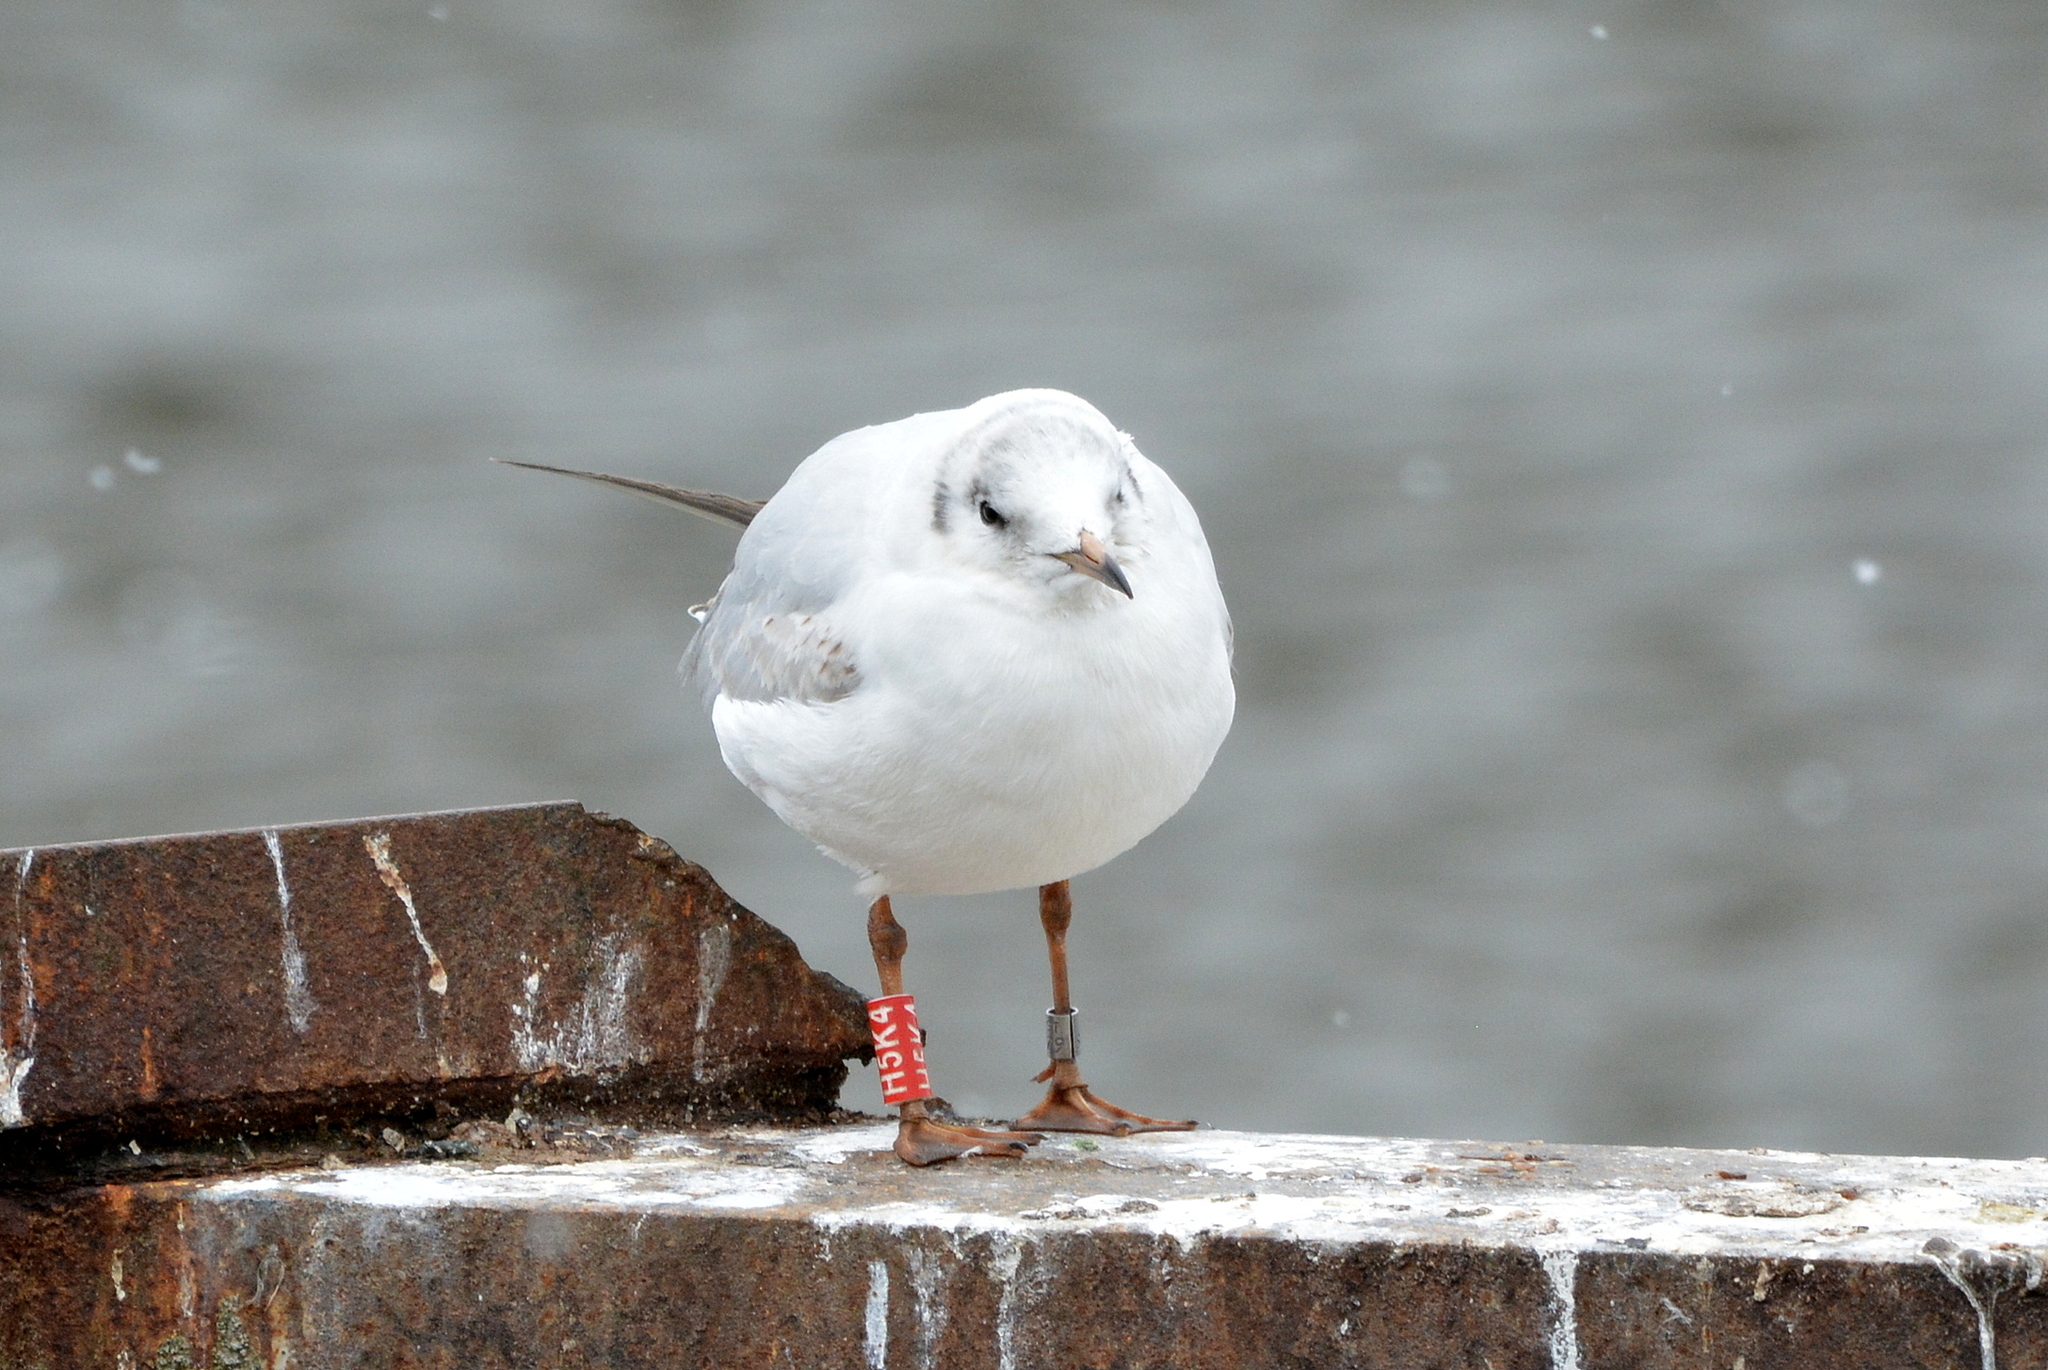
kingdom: Animalia
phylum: Chordata
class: Aves
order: Charadriiformes
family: Laridae
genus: Chroicocephalus
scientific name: Chroicocephalus ridibundus
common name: Black-headed gull
